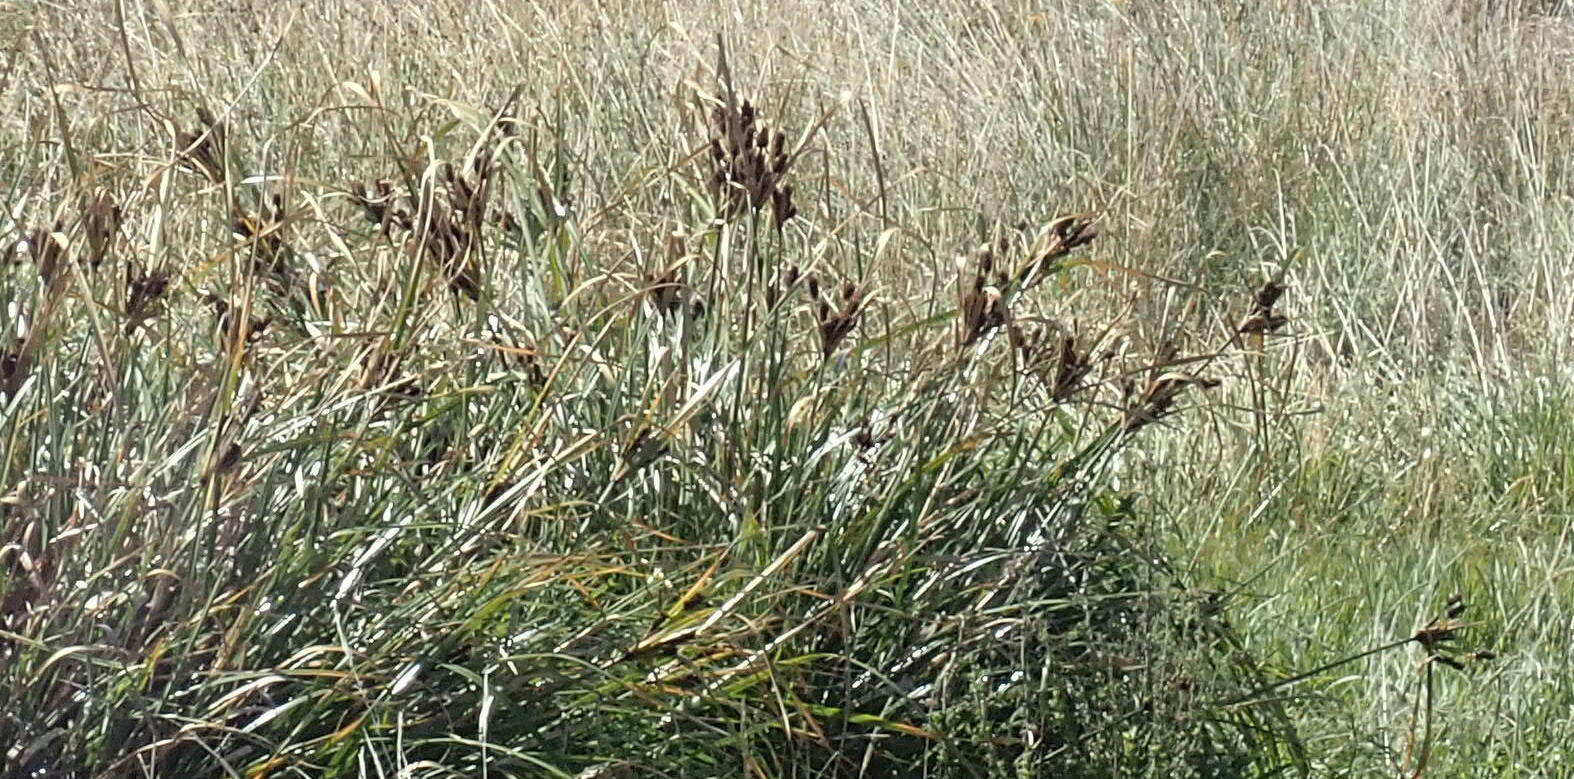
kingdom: Plantae
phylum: Tracheophyta
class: Liliopsida
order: Poales
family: Cyperaceae
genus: Cyperus
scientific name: Cyperus ustulatus
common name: Giant umbrella-sedge
